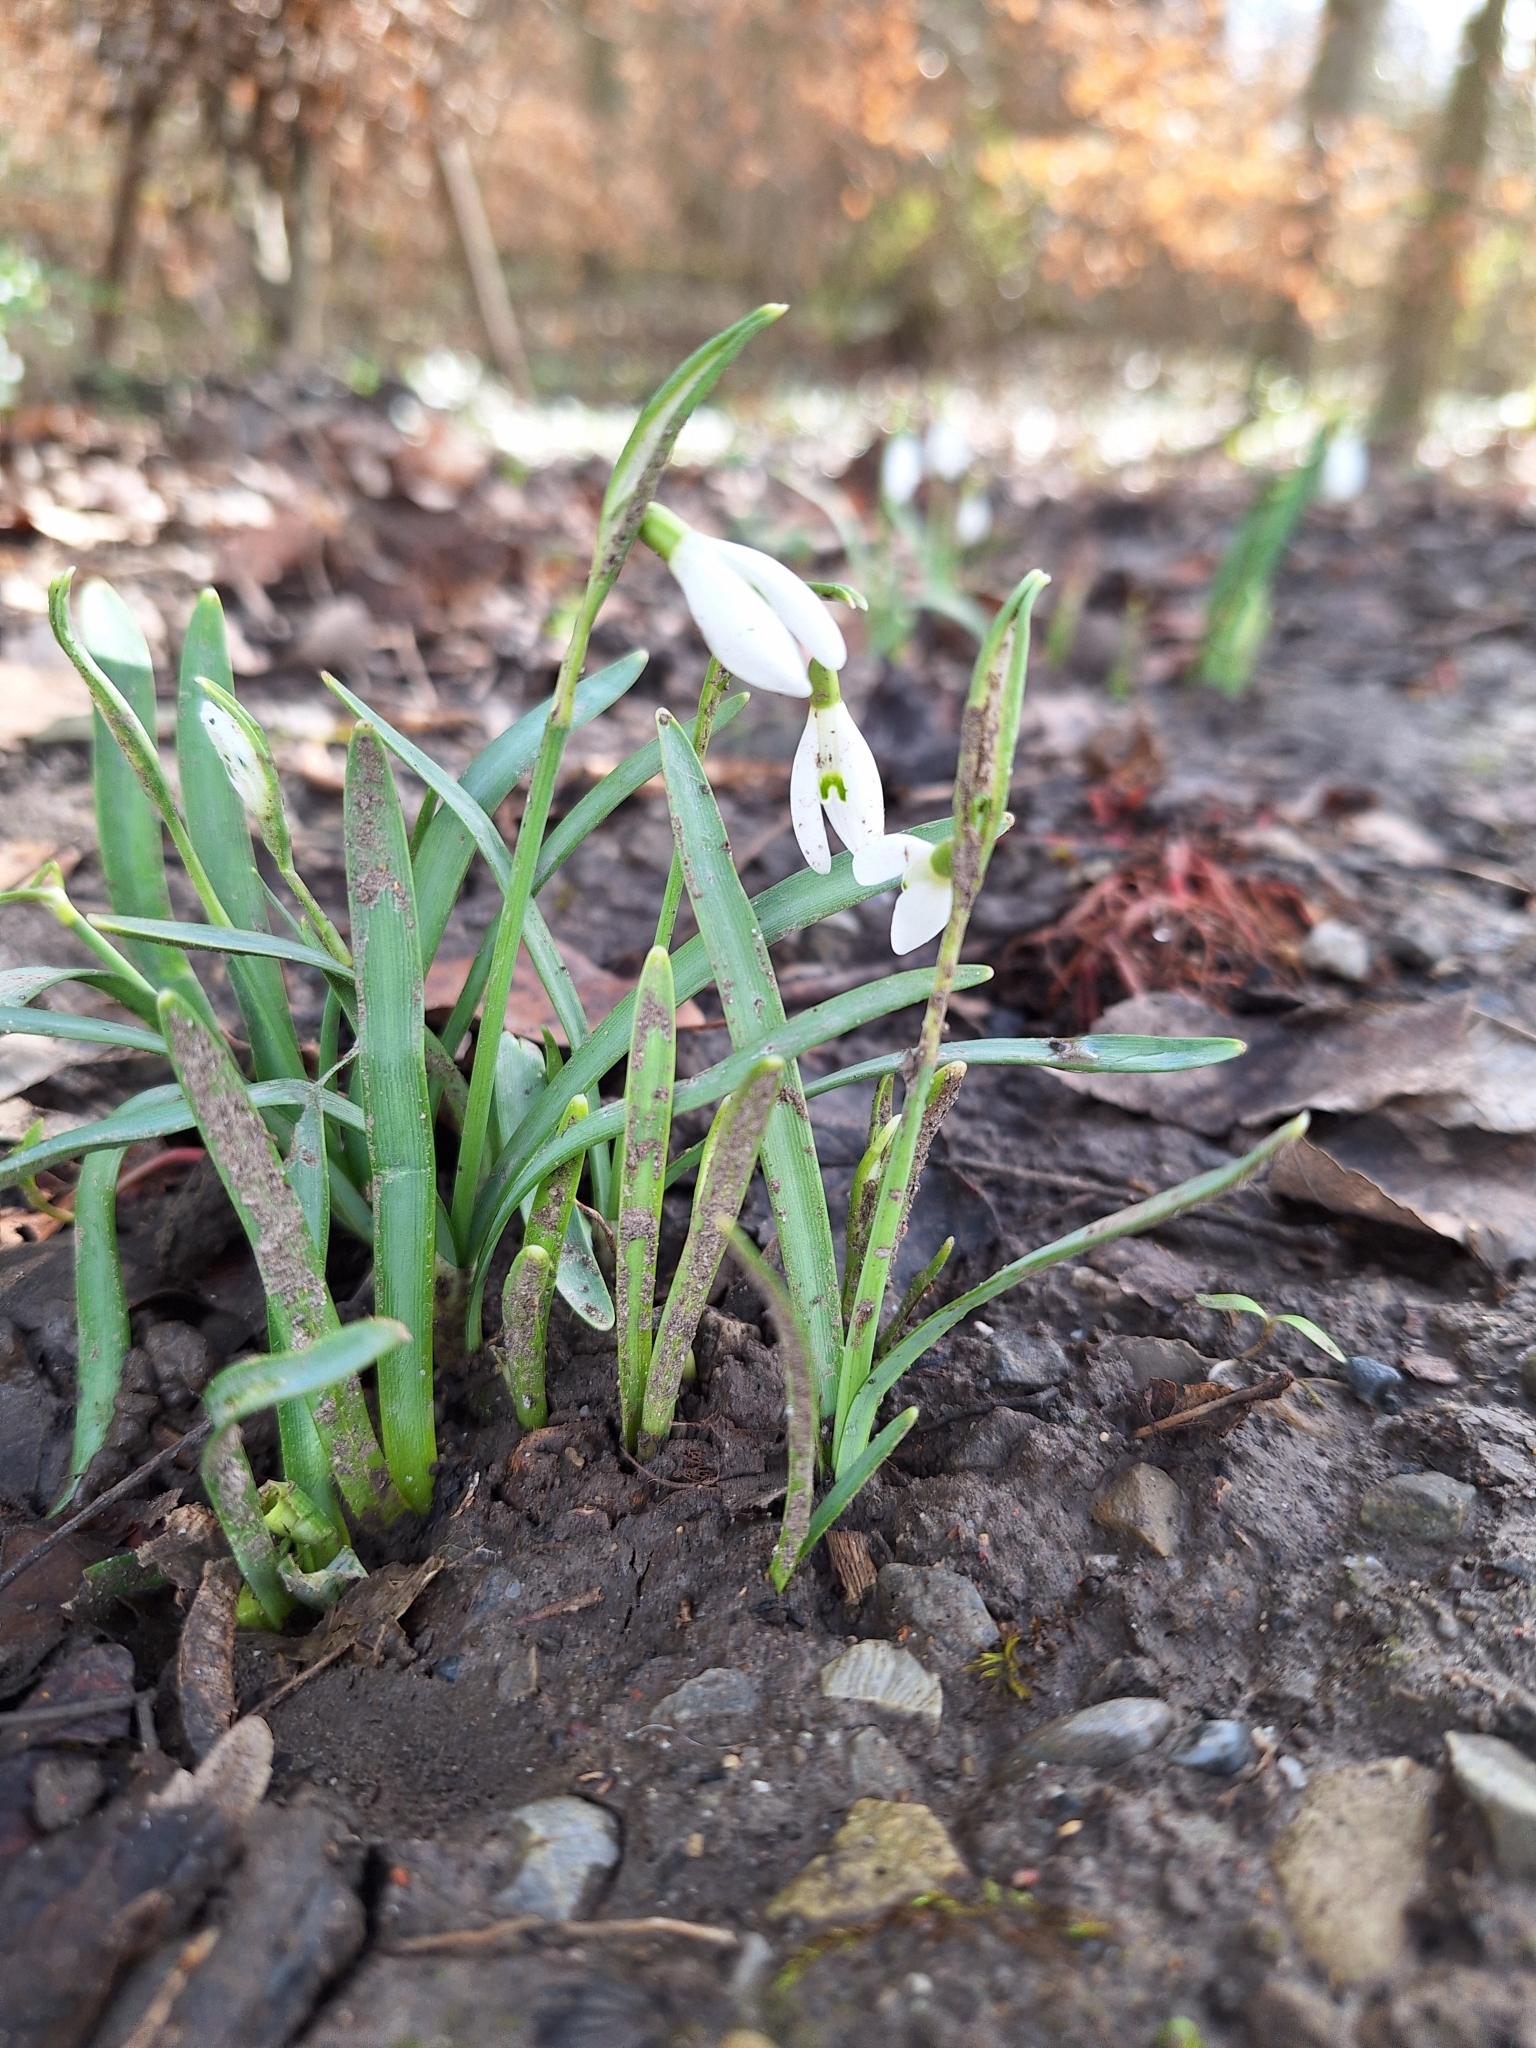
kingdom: Plantae
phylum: Tracheophyta
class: Liliopsida
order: Asparagales
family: Amaryllidaceae
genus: Galanthus
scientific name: Galanthus nivalis
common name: Snowdrop
